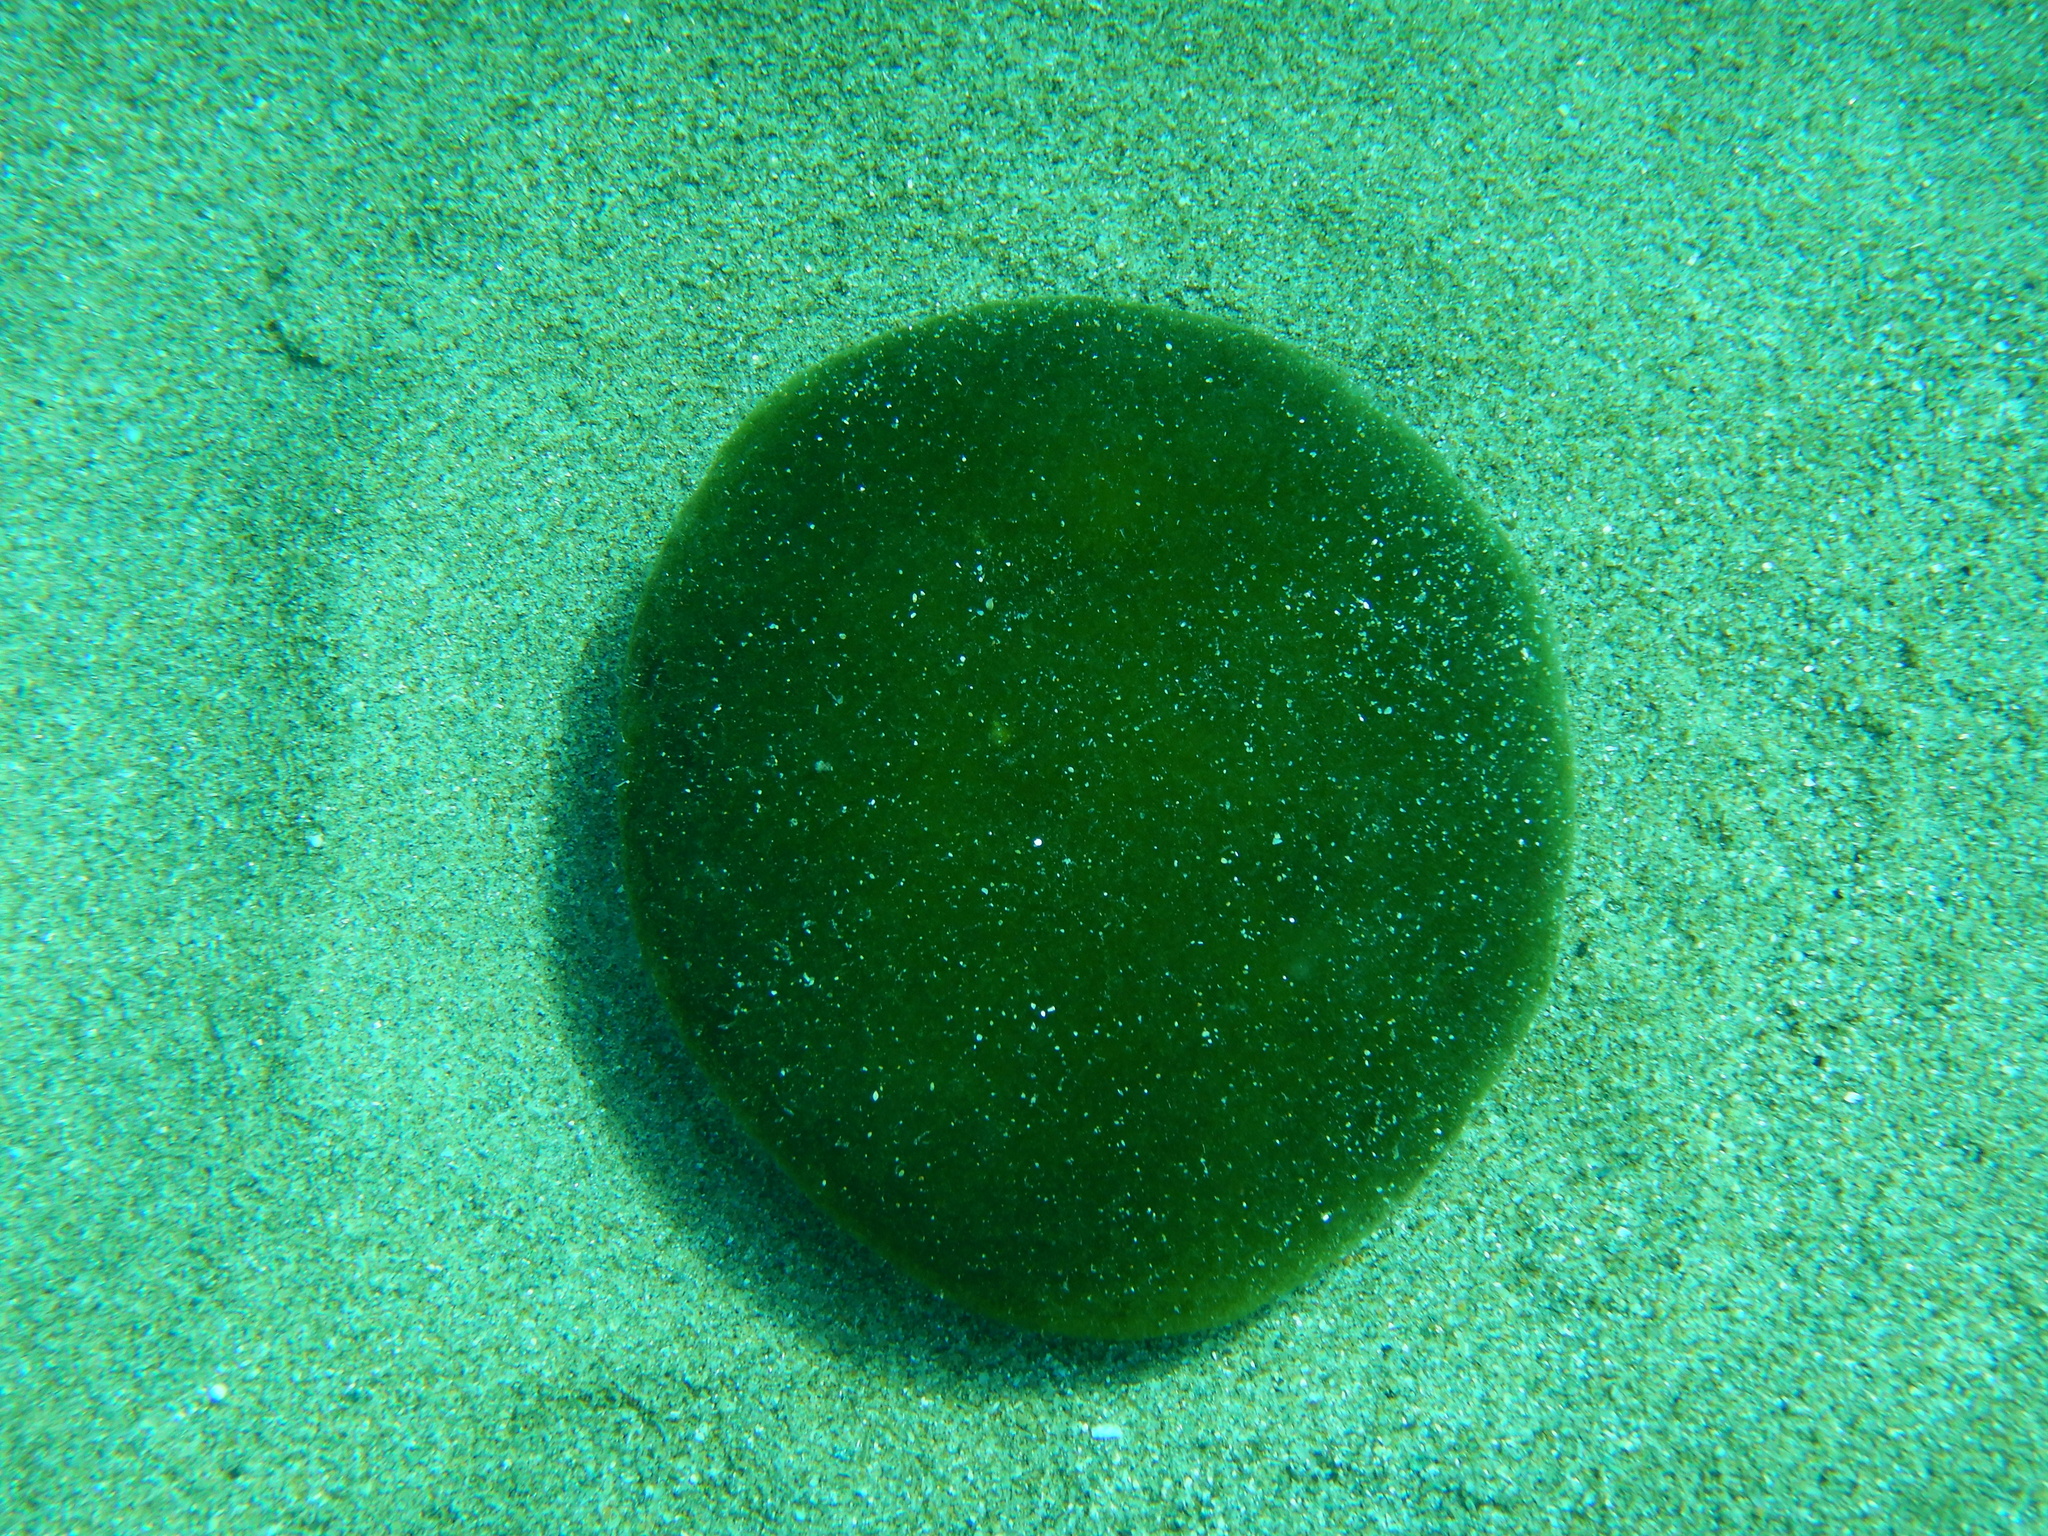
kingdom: Plantae
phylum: Chlorophyta
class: Ulvophyceae
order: Bryopsidales
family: Codiaceae
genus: Codium
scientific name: Codium bursa
